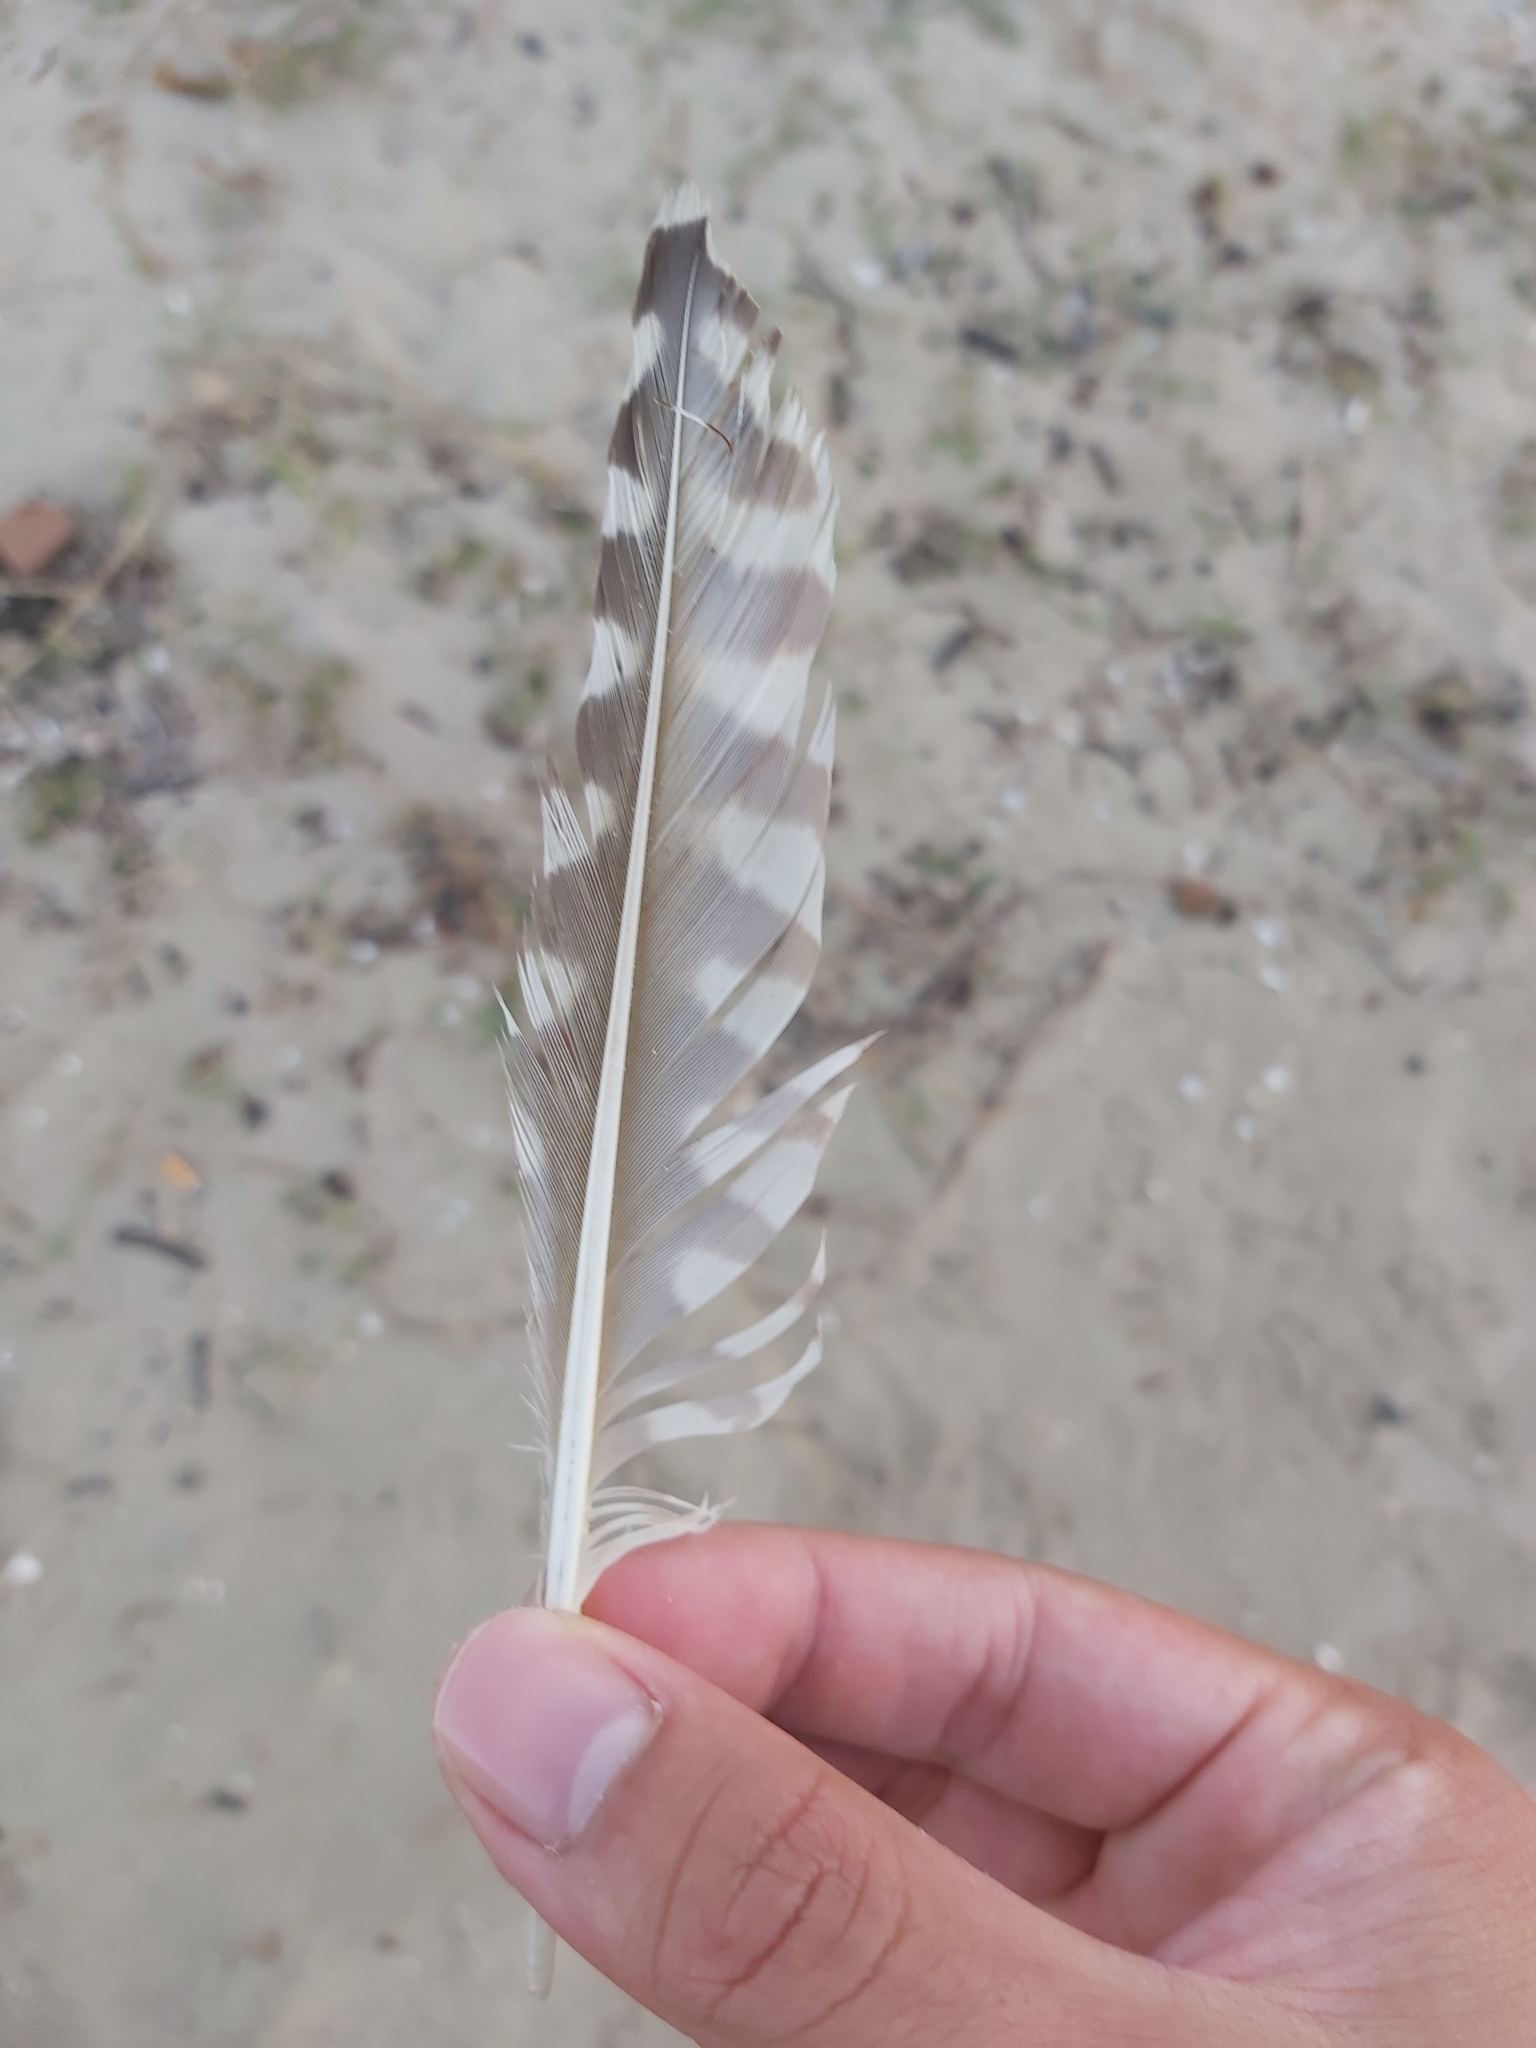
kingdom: Animalia
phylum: Chordata
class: Aves
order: Charadriiformes
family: Scolopacidae
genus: Numenius
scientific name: Numenius madagascariensis
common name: Far eastern curlew
